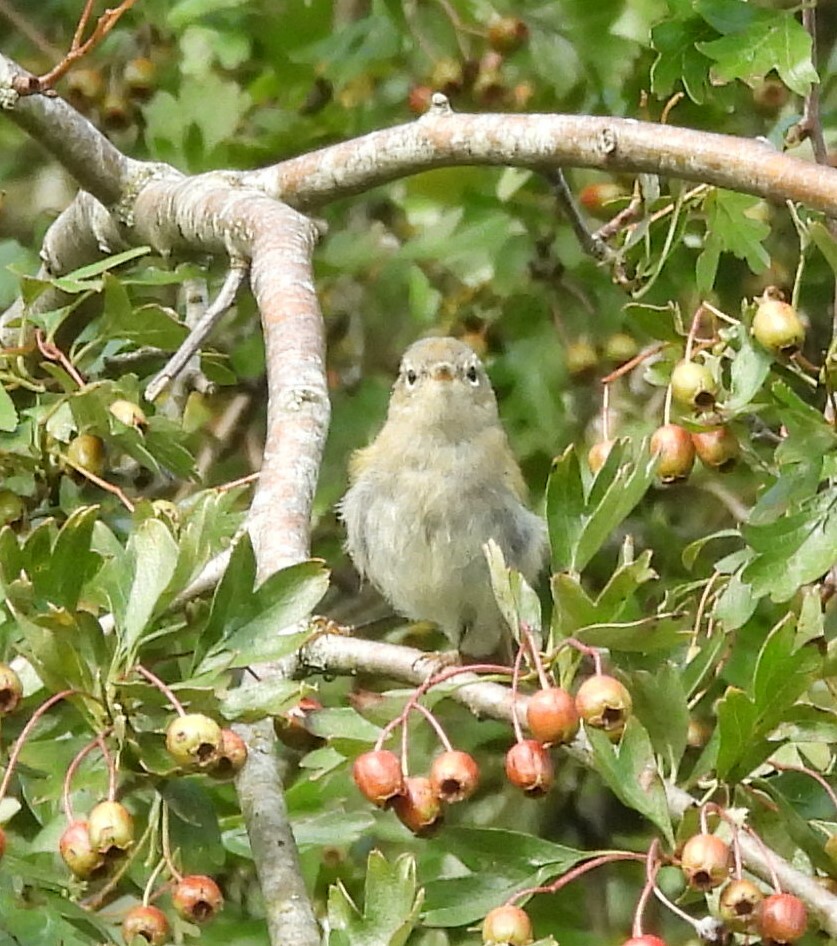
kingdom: Animalia
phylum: Chordata
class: Aves
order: Passeriformes
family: Phylloscopidae
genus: Phylloscopus
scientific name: Phylloscopus collybita
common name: Common chiffchaff
